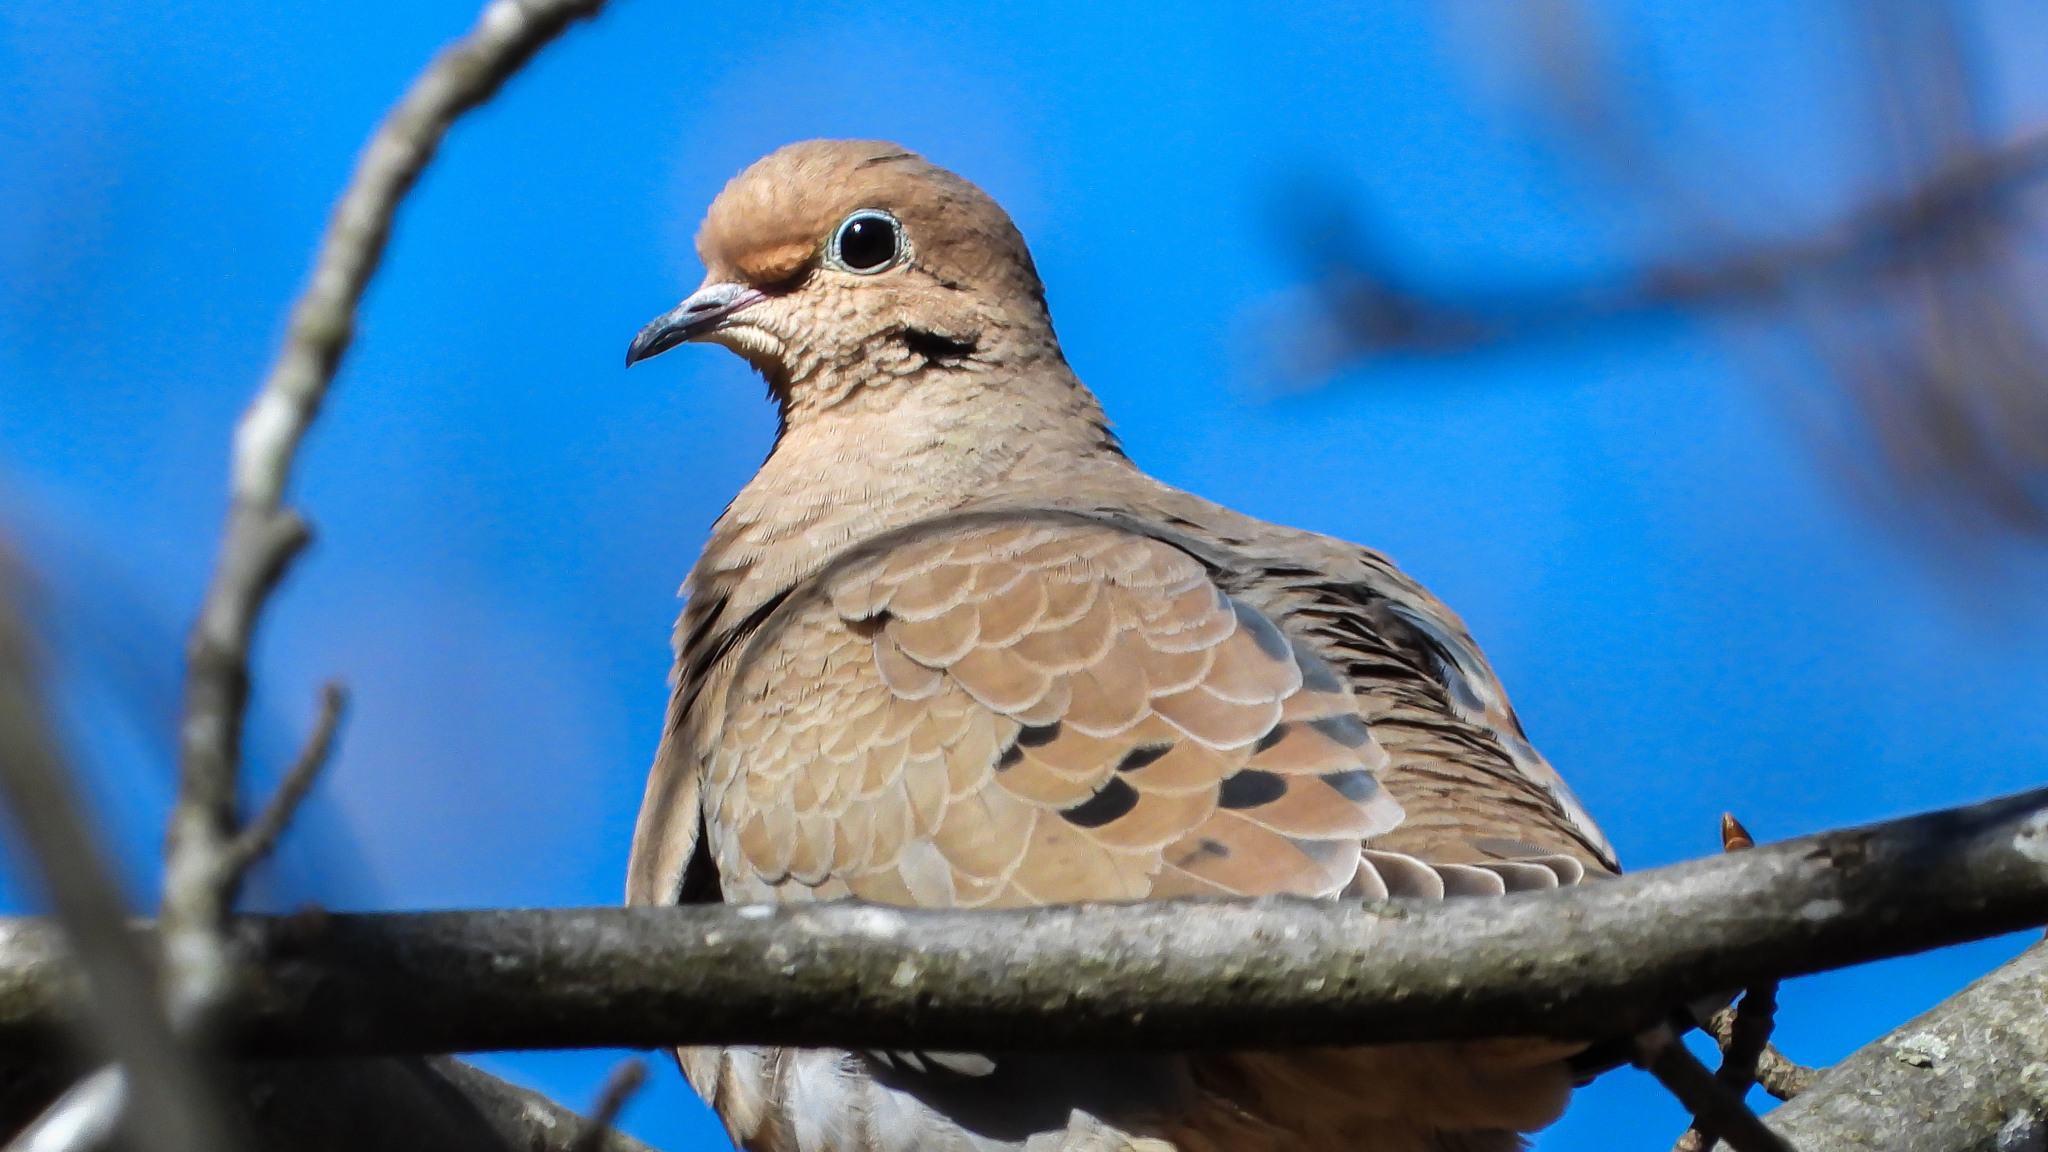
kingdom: Animalia
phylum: Chordata
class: Aves
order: Columbiformes
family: Columbidae
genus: Zenaida
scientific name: Zenaida macroura
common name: Mourning dove
